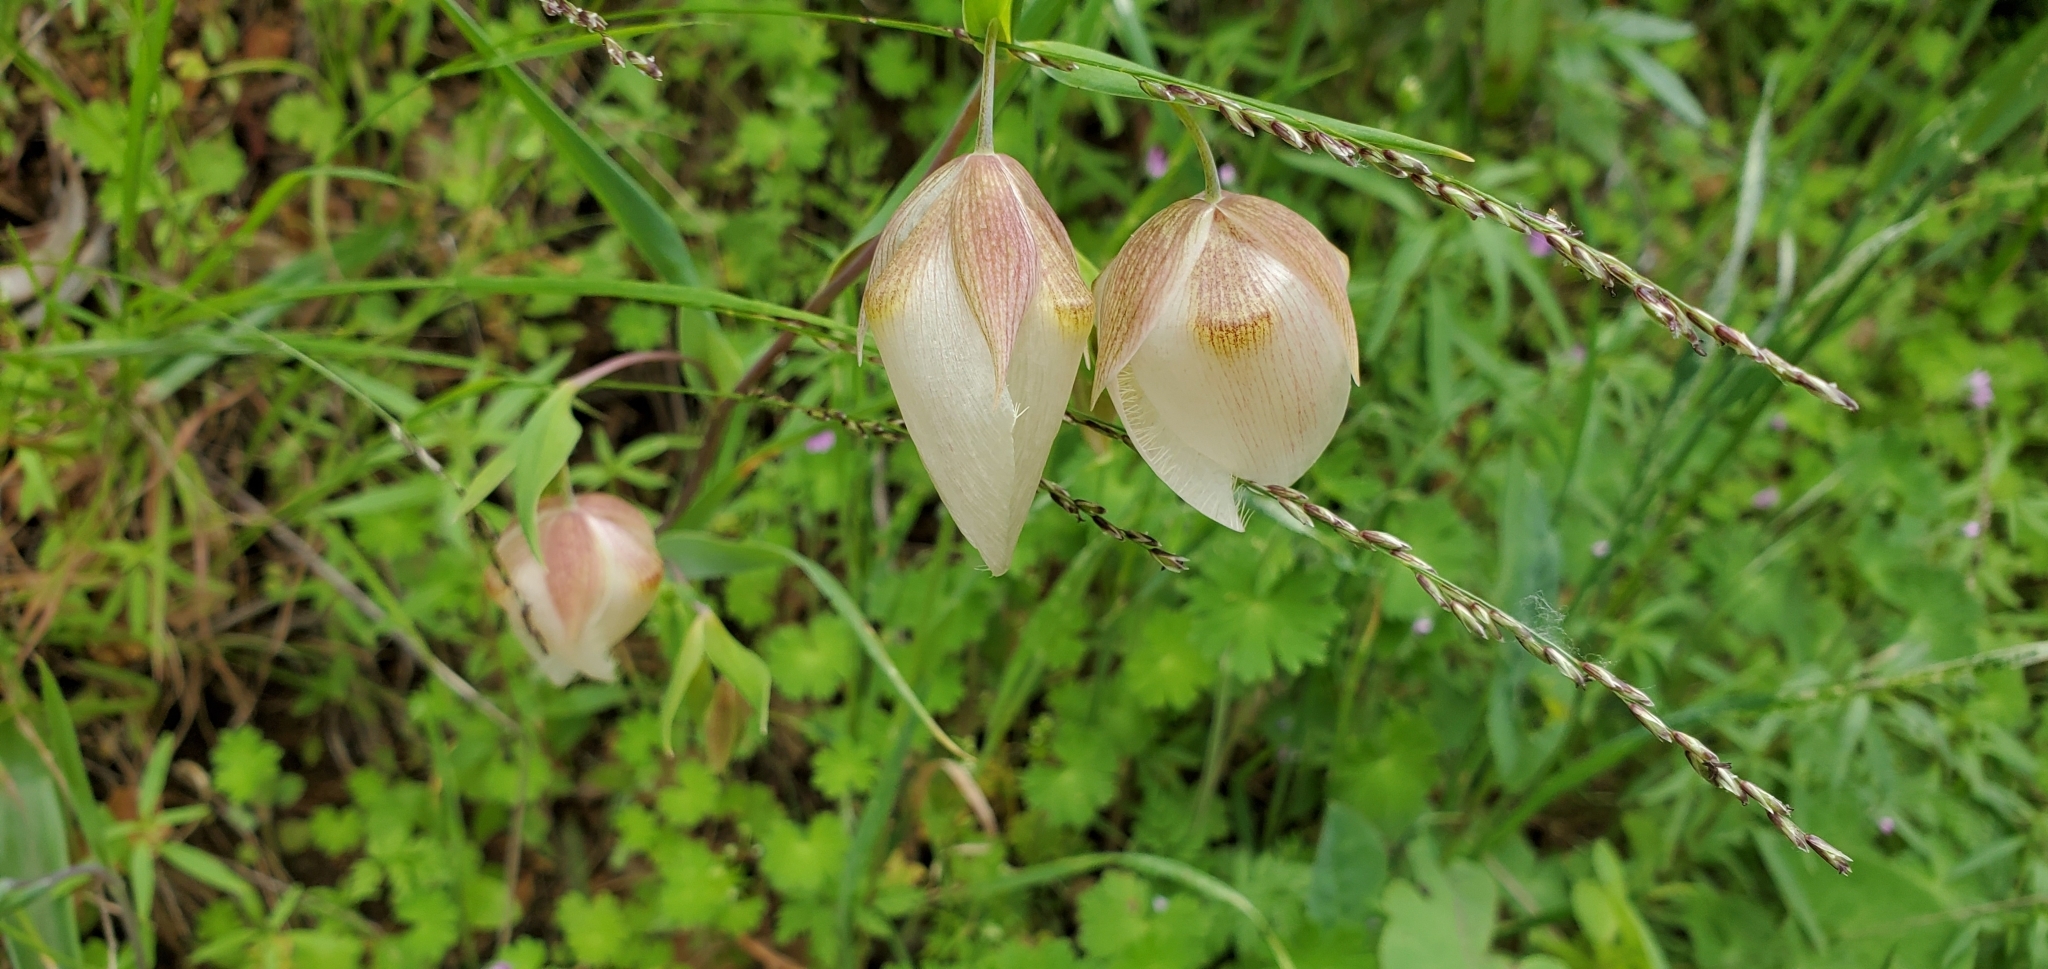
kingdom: Plantae
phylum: Tracheophyta
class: Liliopsida
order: Liliales
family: Liliaceae
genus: Calochortus
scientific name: Calochortus albus
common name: Fairy-lantern
